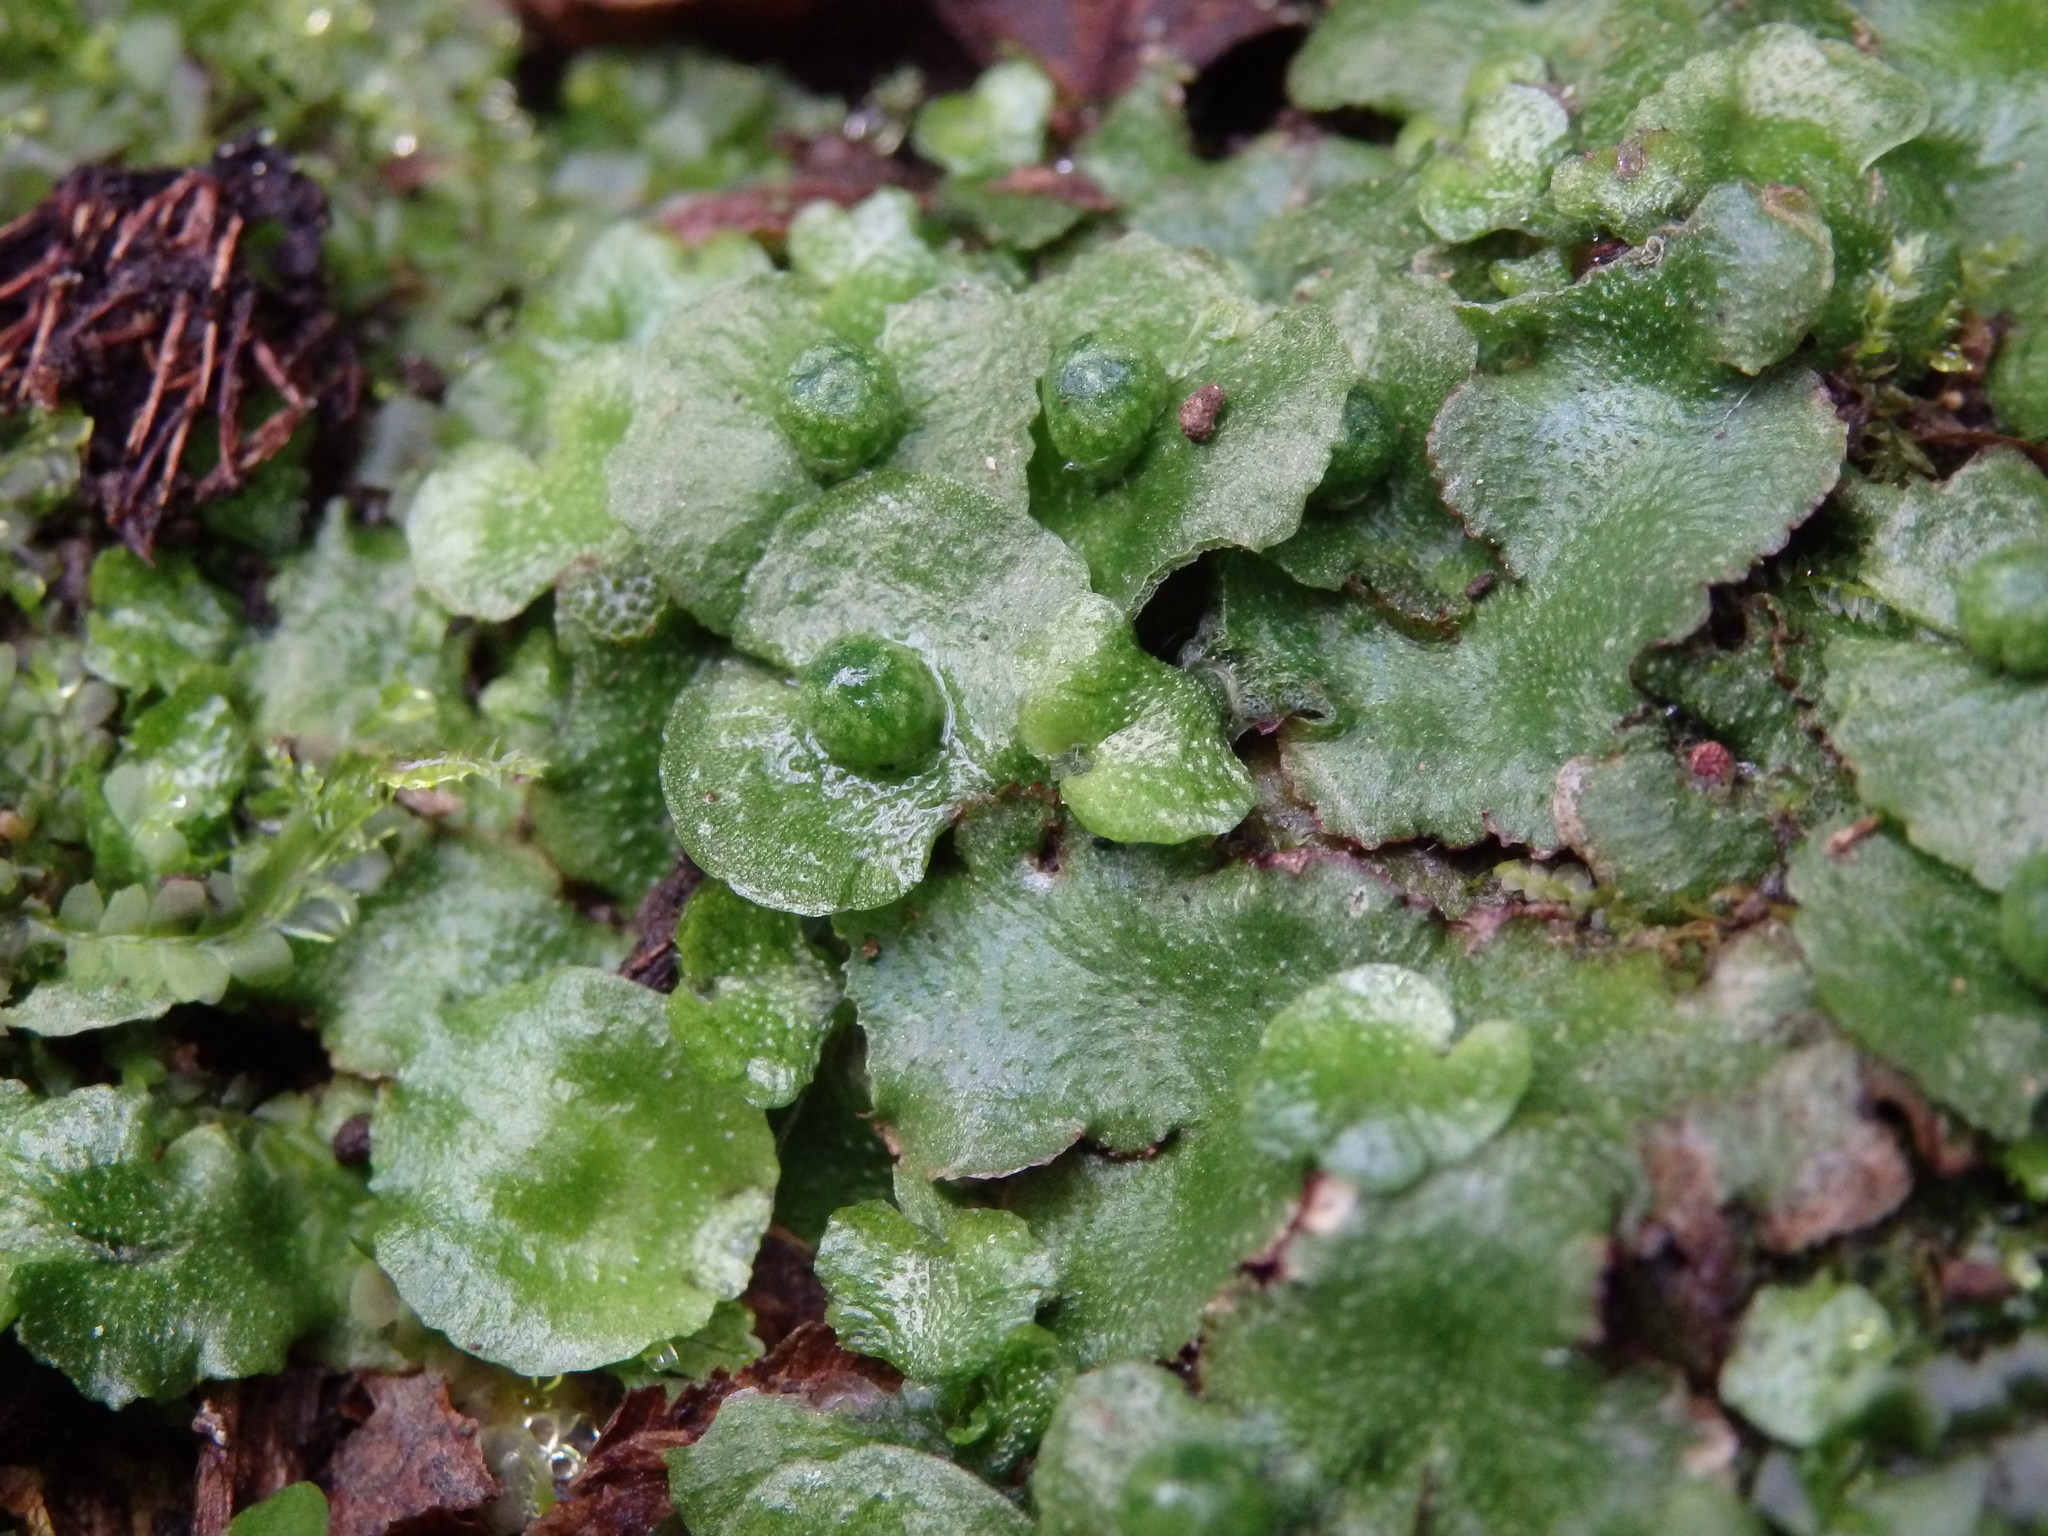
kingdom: Plantae
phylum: Marchantiophyta
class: Marchantiopsida
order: Marchantiales
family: Aytoniaceae
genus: Reboulia
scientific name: Reboulia hemisphaerica
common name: Purple-margined liverwort
